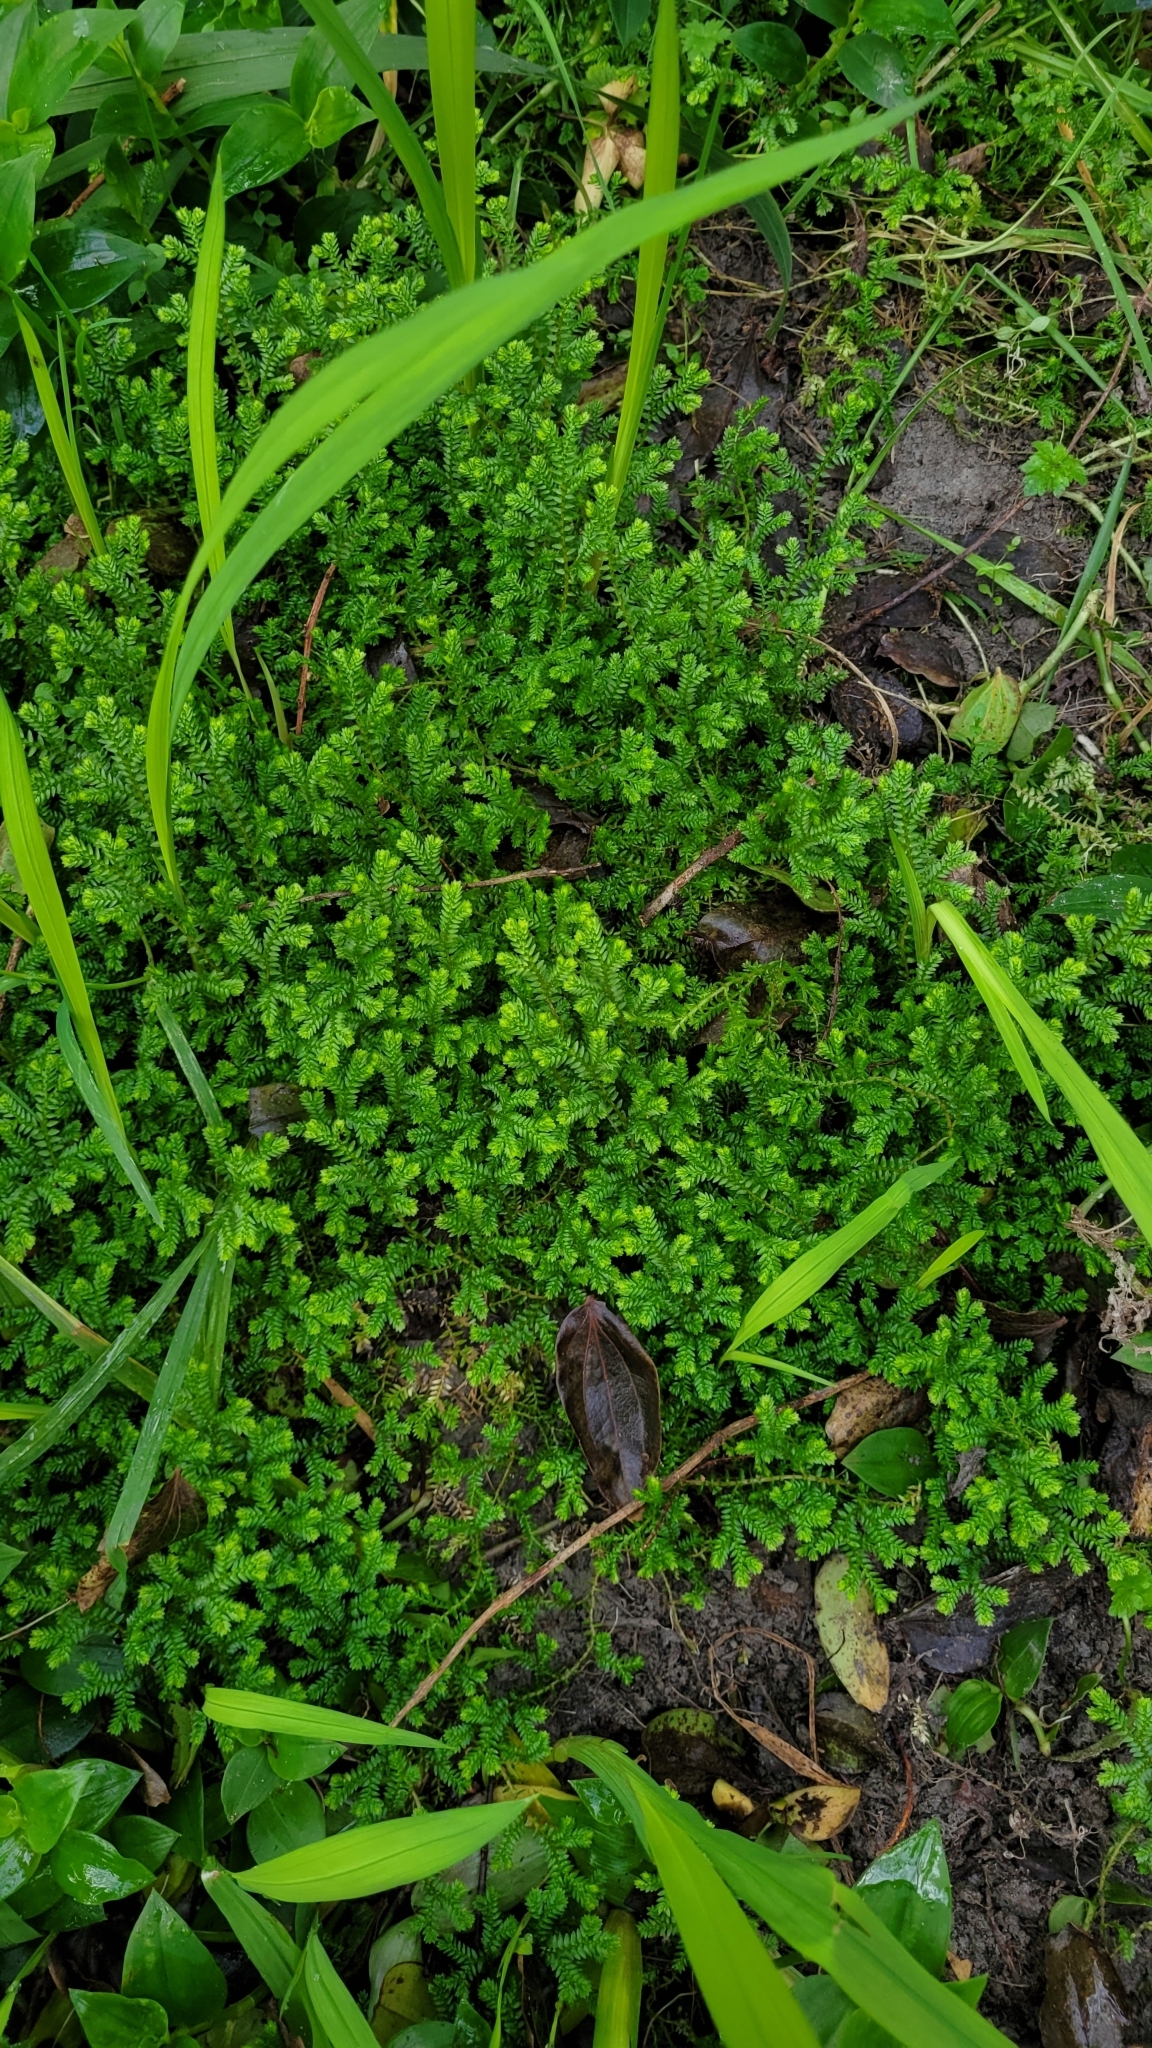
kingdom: Plantae
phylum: Tracheophyta
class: Lycopodiopsida
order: Selaginellales
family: Selaginellaceae
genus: Selaginella
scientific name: Selaginella kraussiana
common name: Krauss' spikemoss
